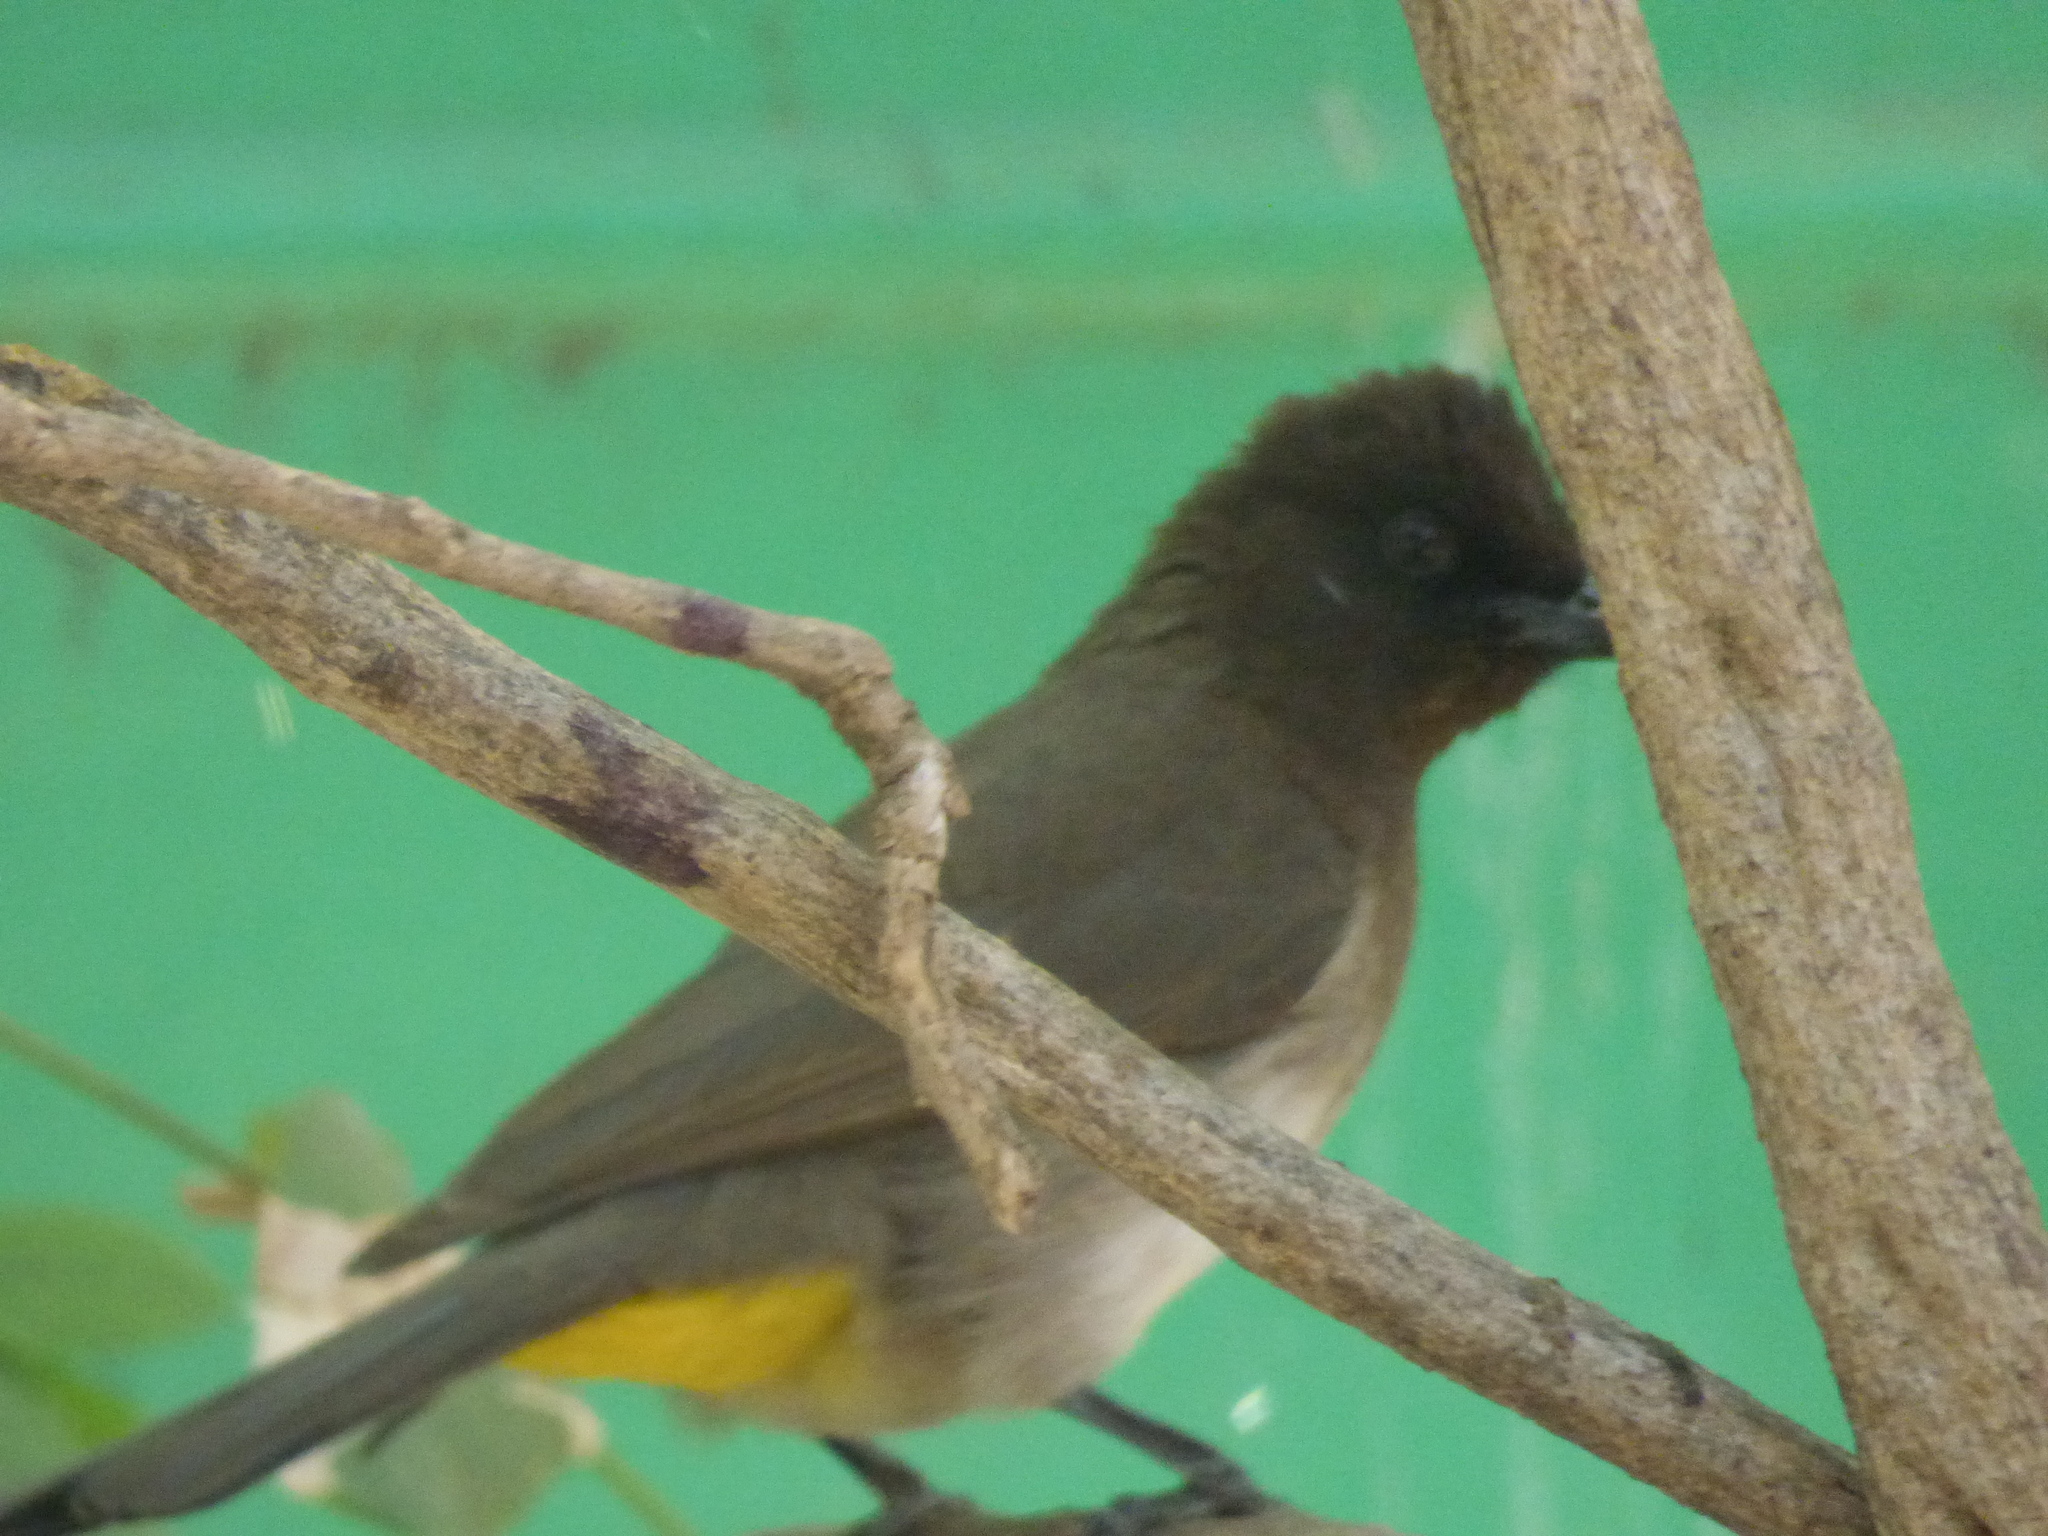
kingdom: Animalia
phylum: Chordata
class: Aves
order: Passeriformes
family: Pycnonotidae
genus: Pycnonotus
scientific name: Pycnonotus barbatus
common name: Common bulbul
